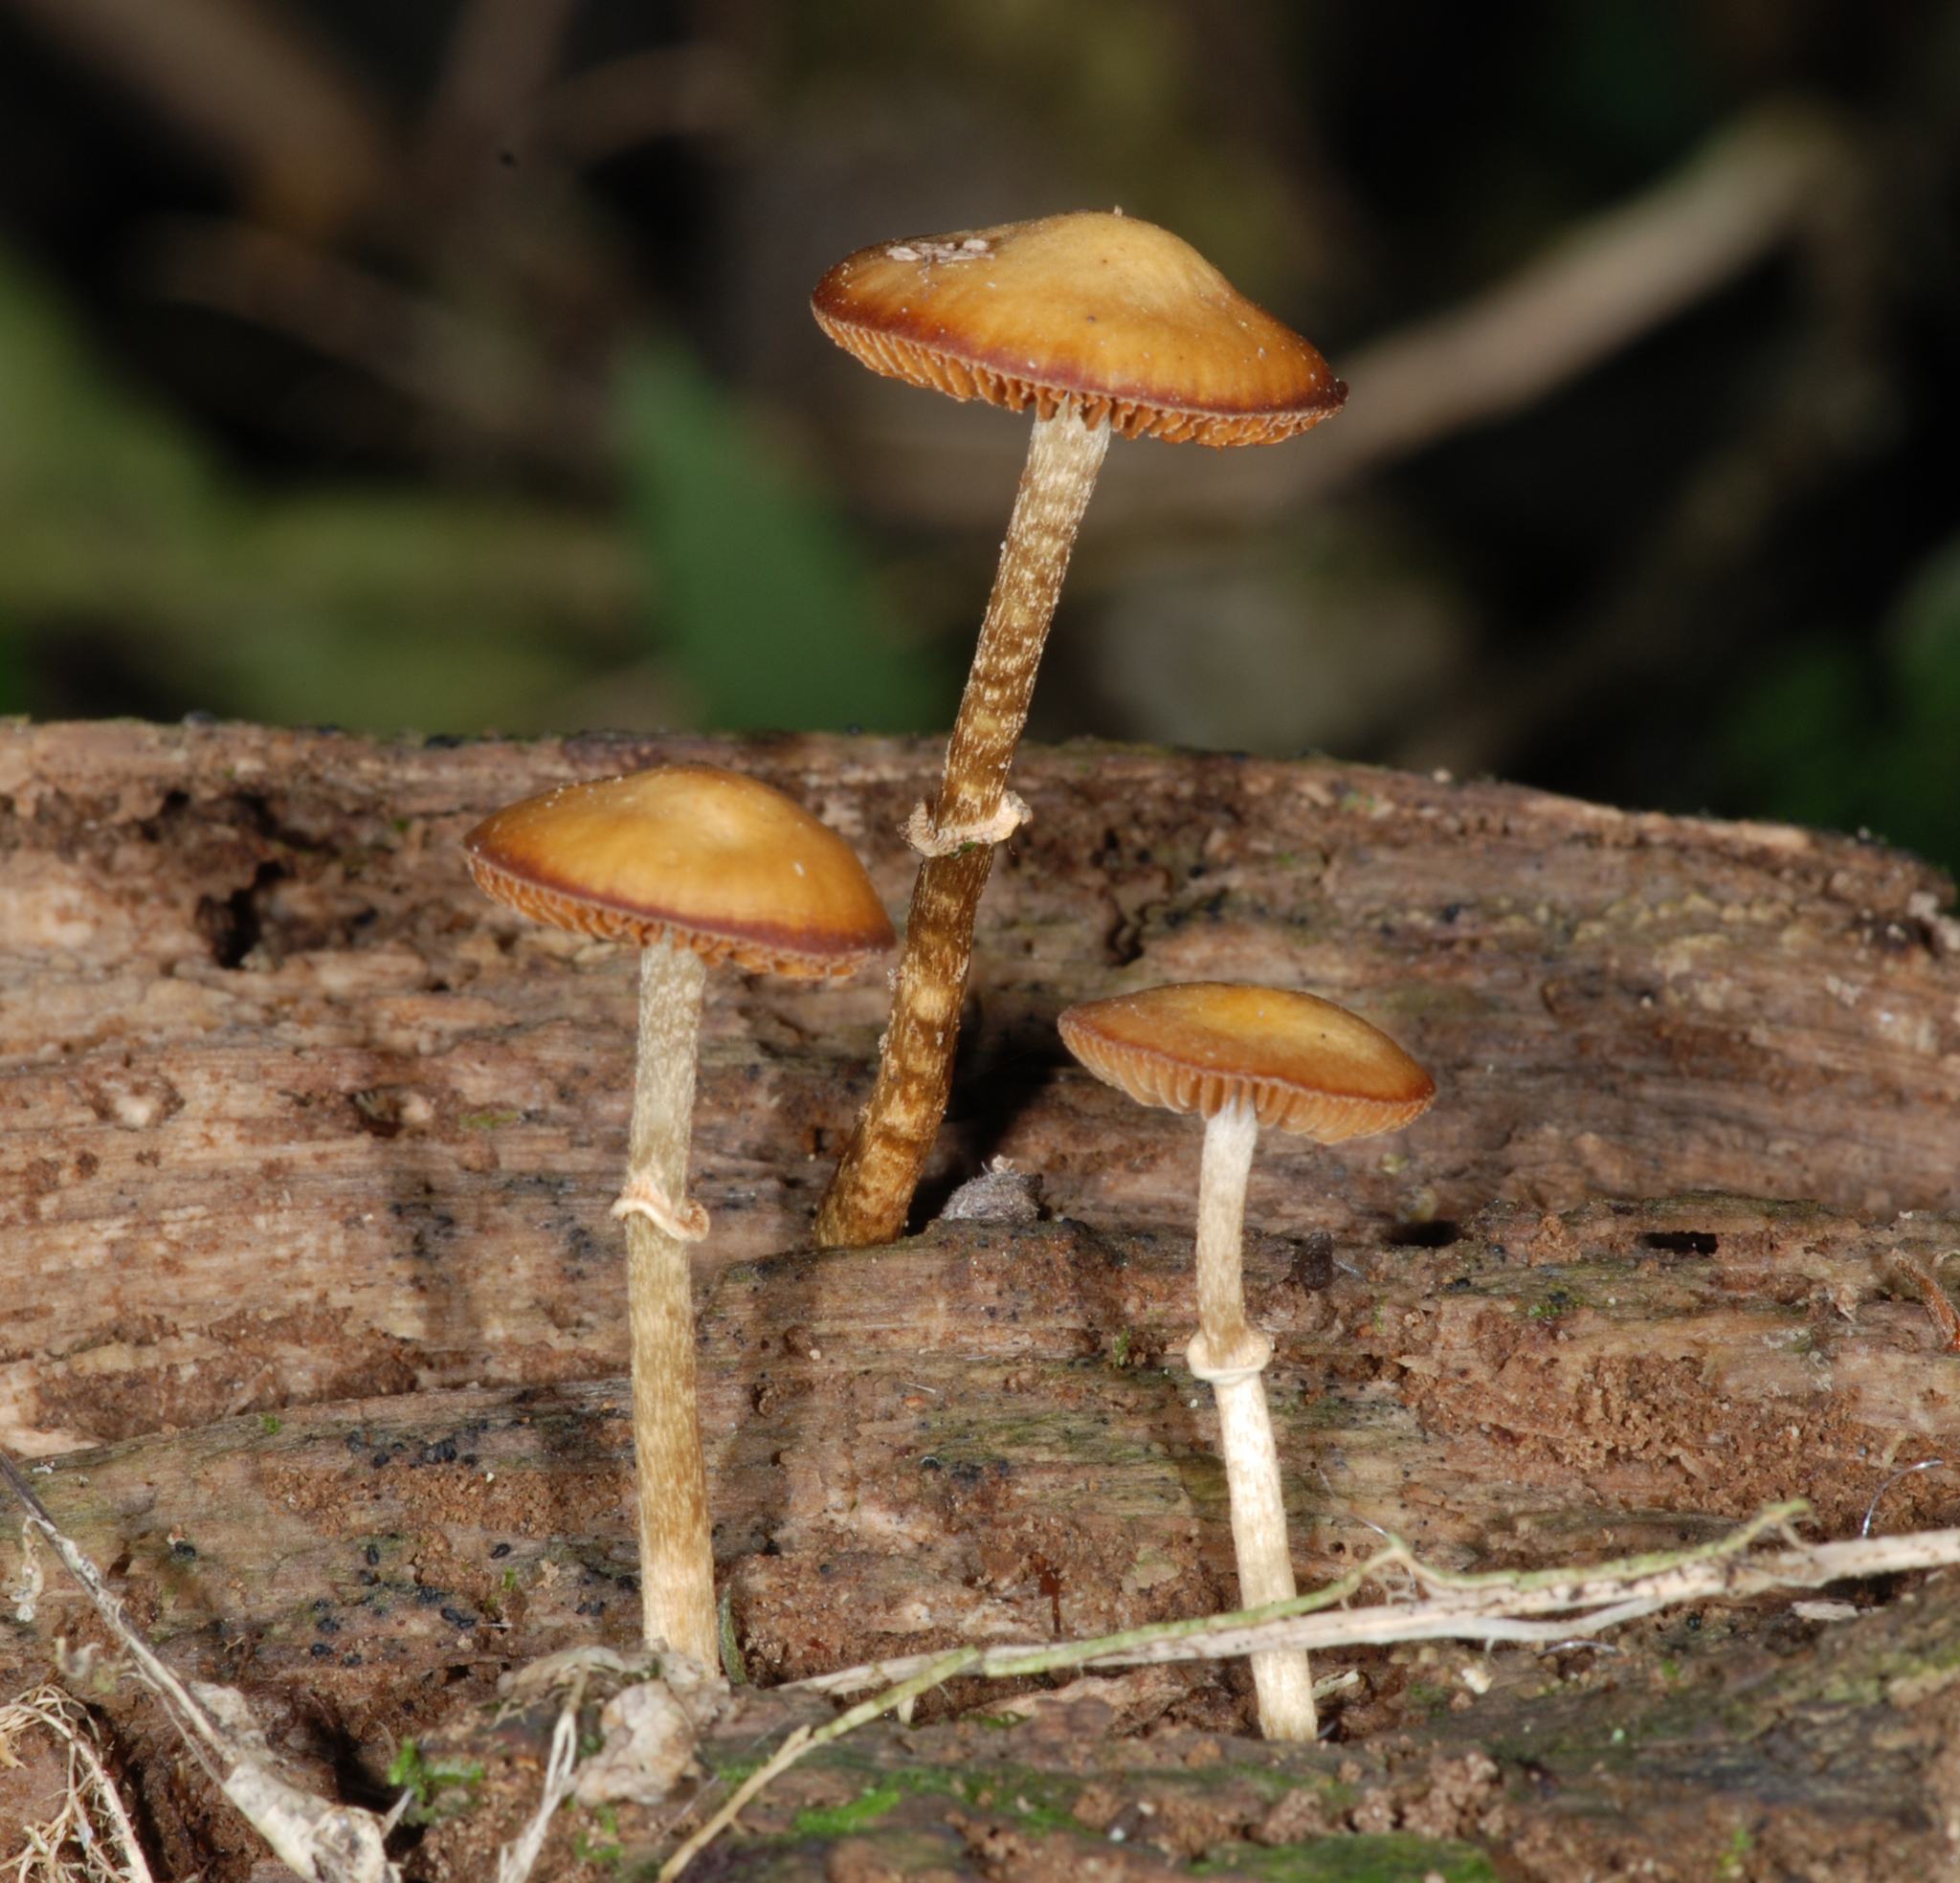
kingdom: Fungi
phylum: Basidiomycota
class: Agaricomycetes
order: Agaricales
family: Bolbitiaceae
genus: Pholiotina
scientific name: Pholiotina gracilenta
